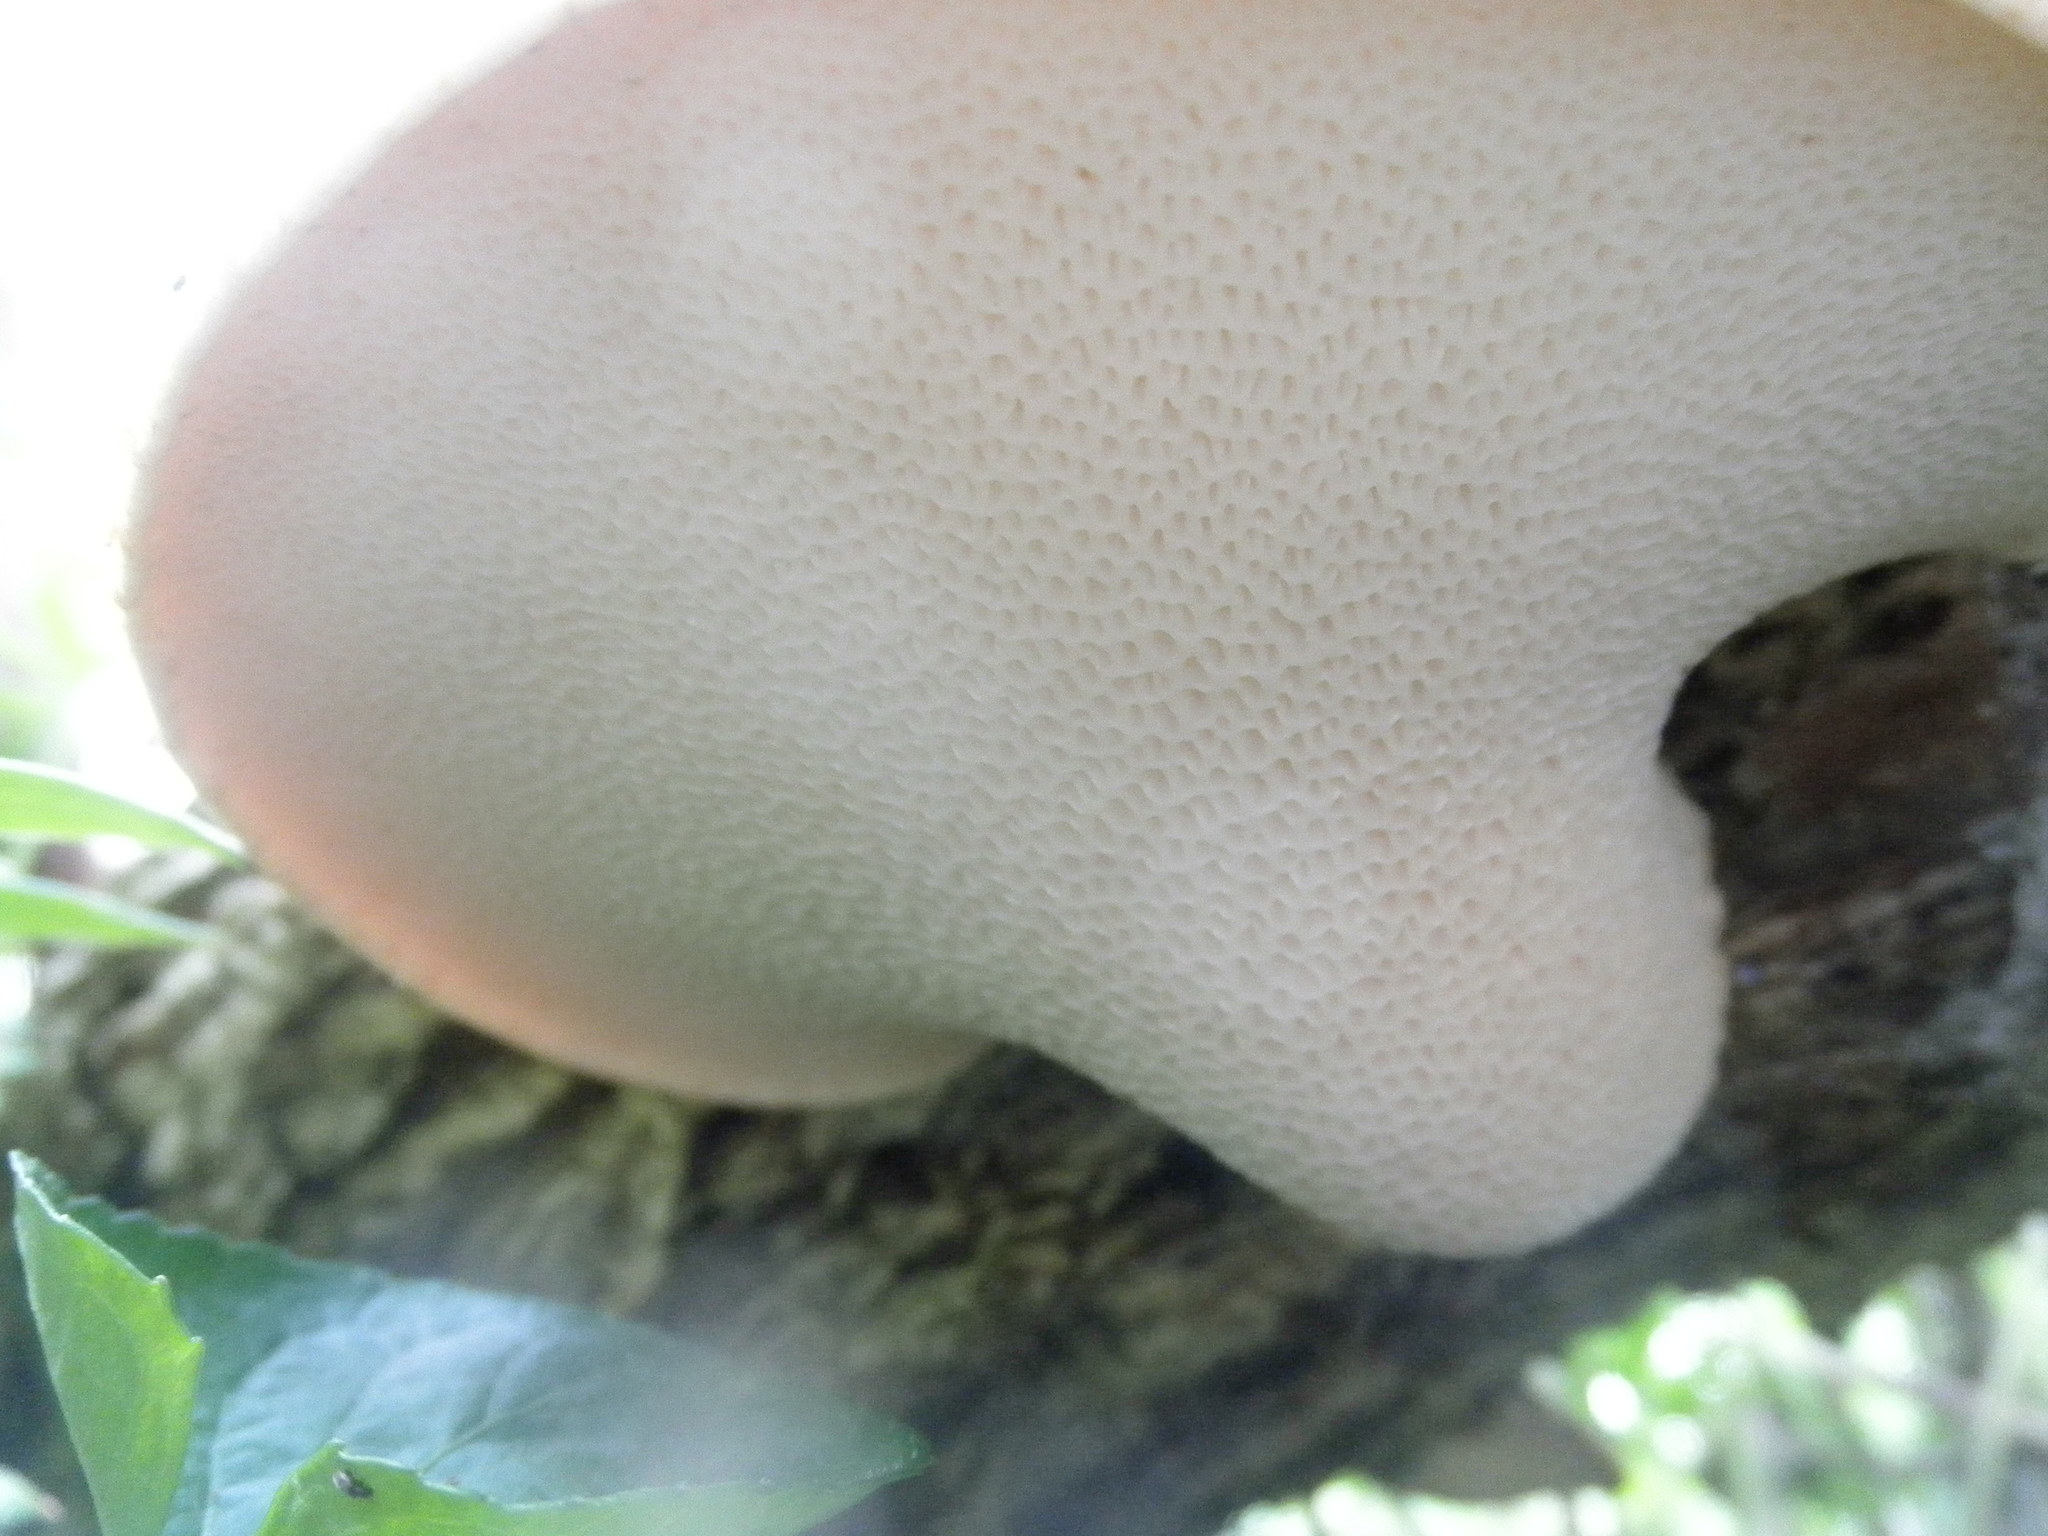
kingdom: Fungi
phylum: Basidiomycota
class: Agaricomycetes
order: Polyporales
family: Polyporaceae
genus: Cerioporus
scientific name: Cerioporus squamosus
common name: Dryad's saddle
